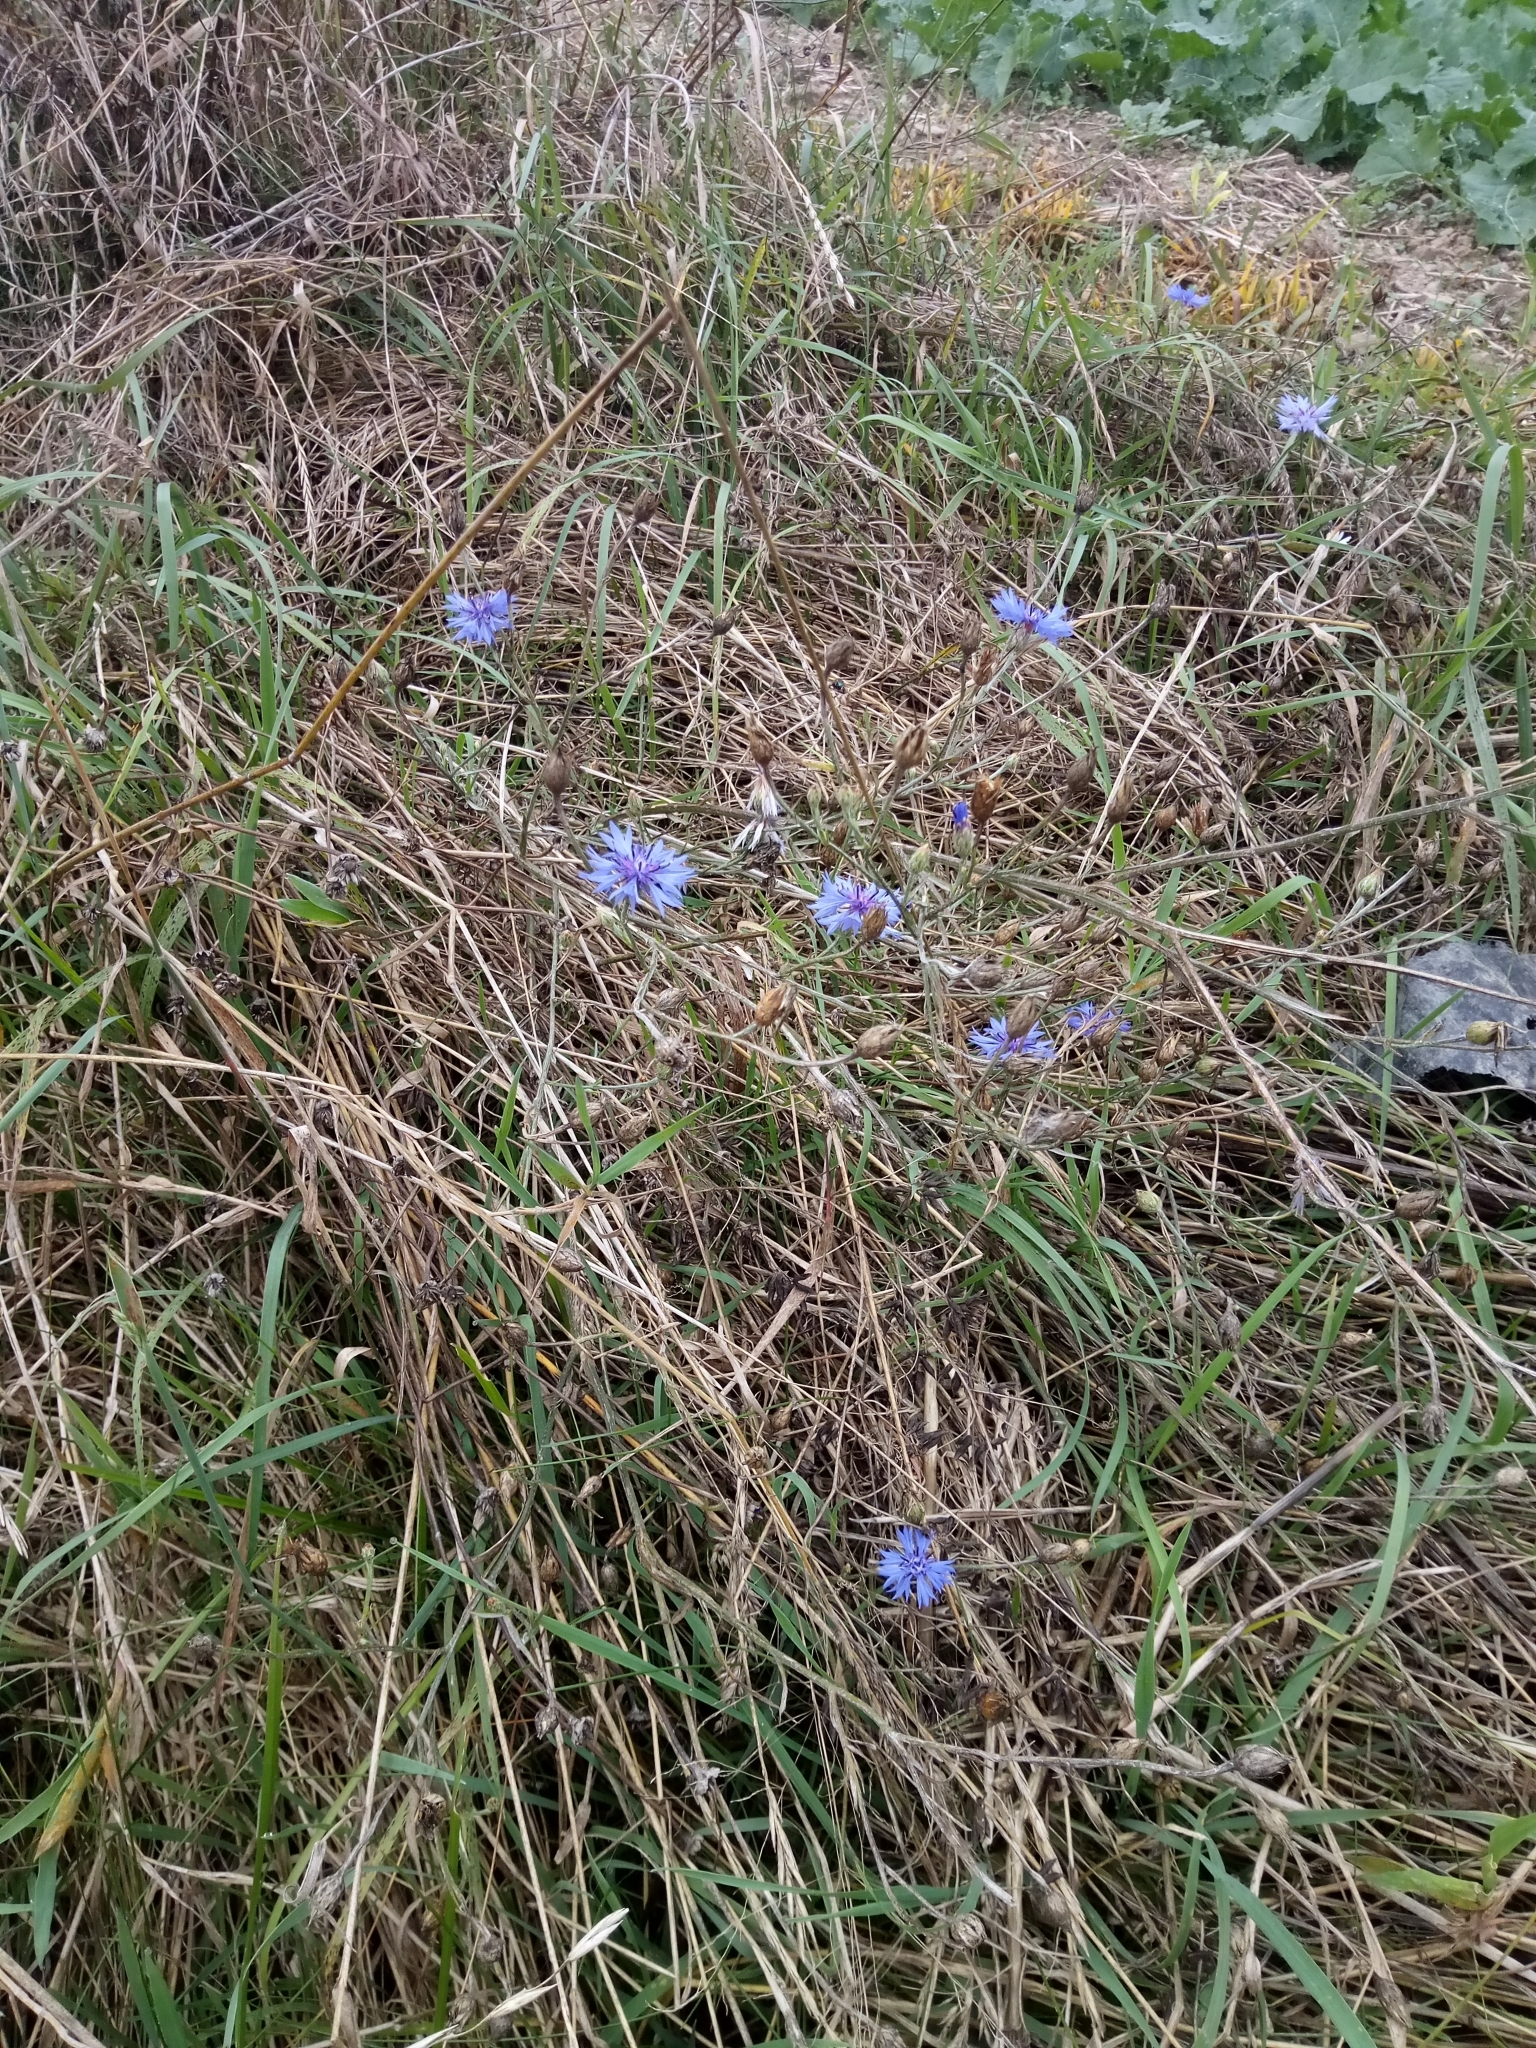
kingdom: Plantae
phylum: Tracheophyta
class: Magnoliopsida
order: Asterales
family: Asteraceae
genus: Centaurea
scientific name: Centaurea cyanus
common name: Cornflower
